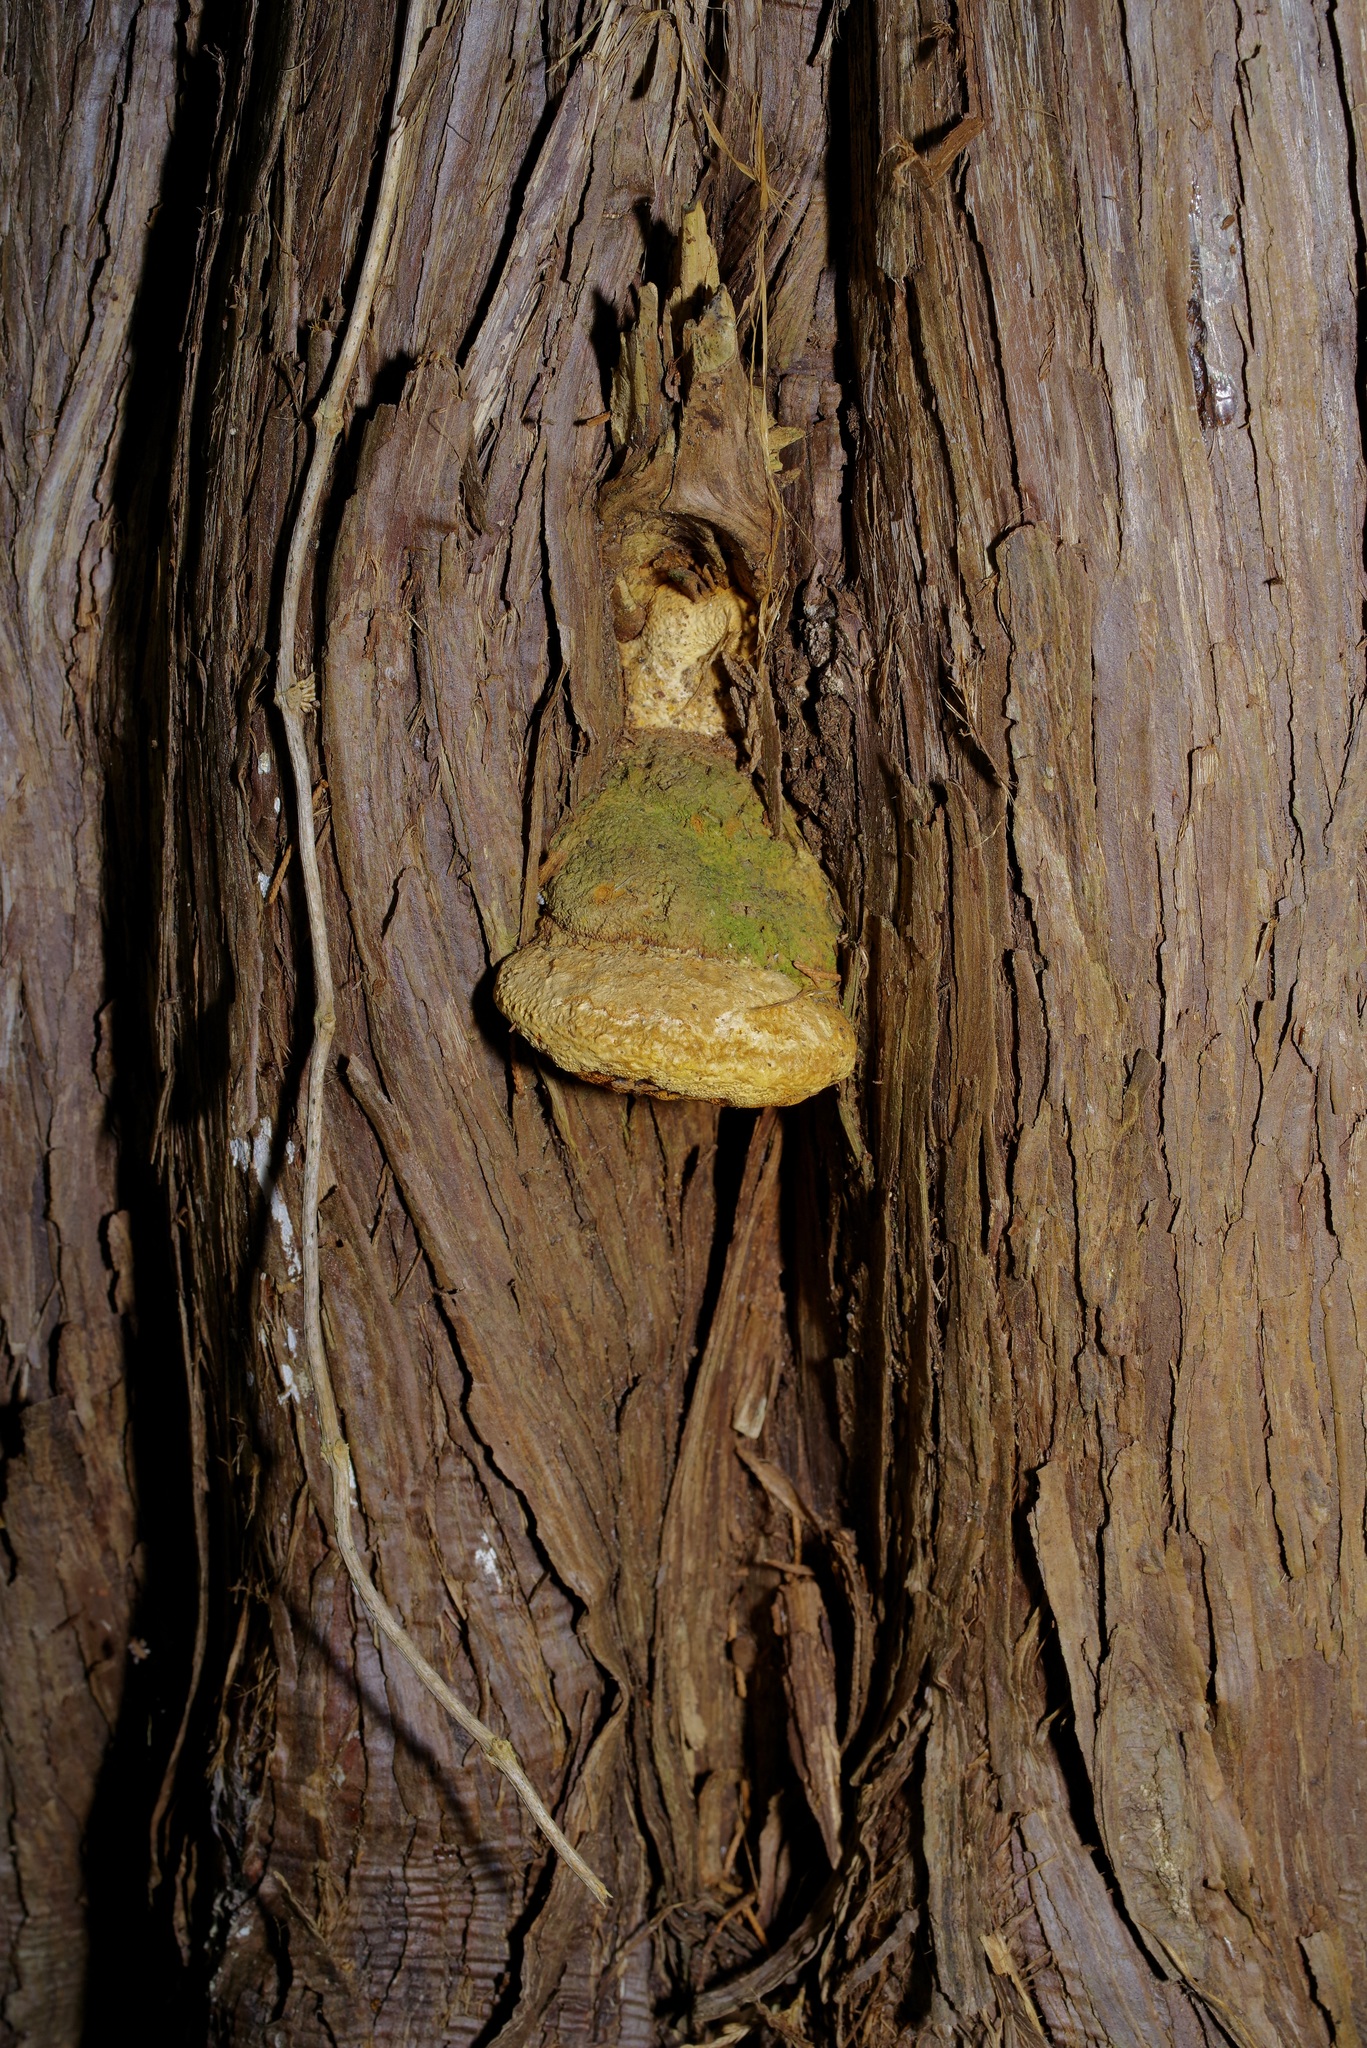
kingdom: Fungi
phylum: Basidiomycota
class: Agaricomycetes
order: Polyporales
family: Polyporaceae
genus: Pyrofomes
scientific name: Pyrofomes juniperinus
